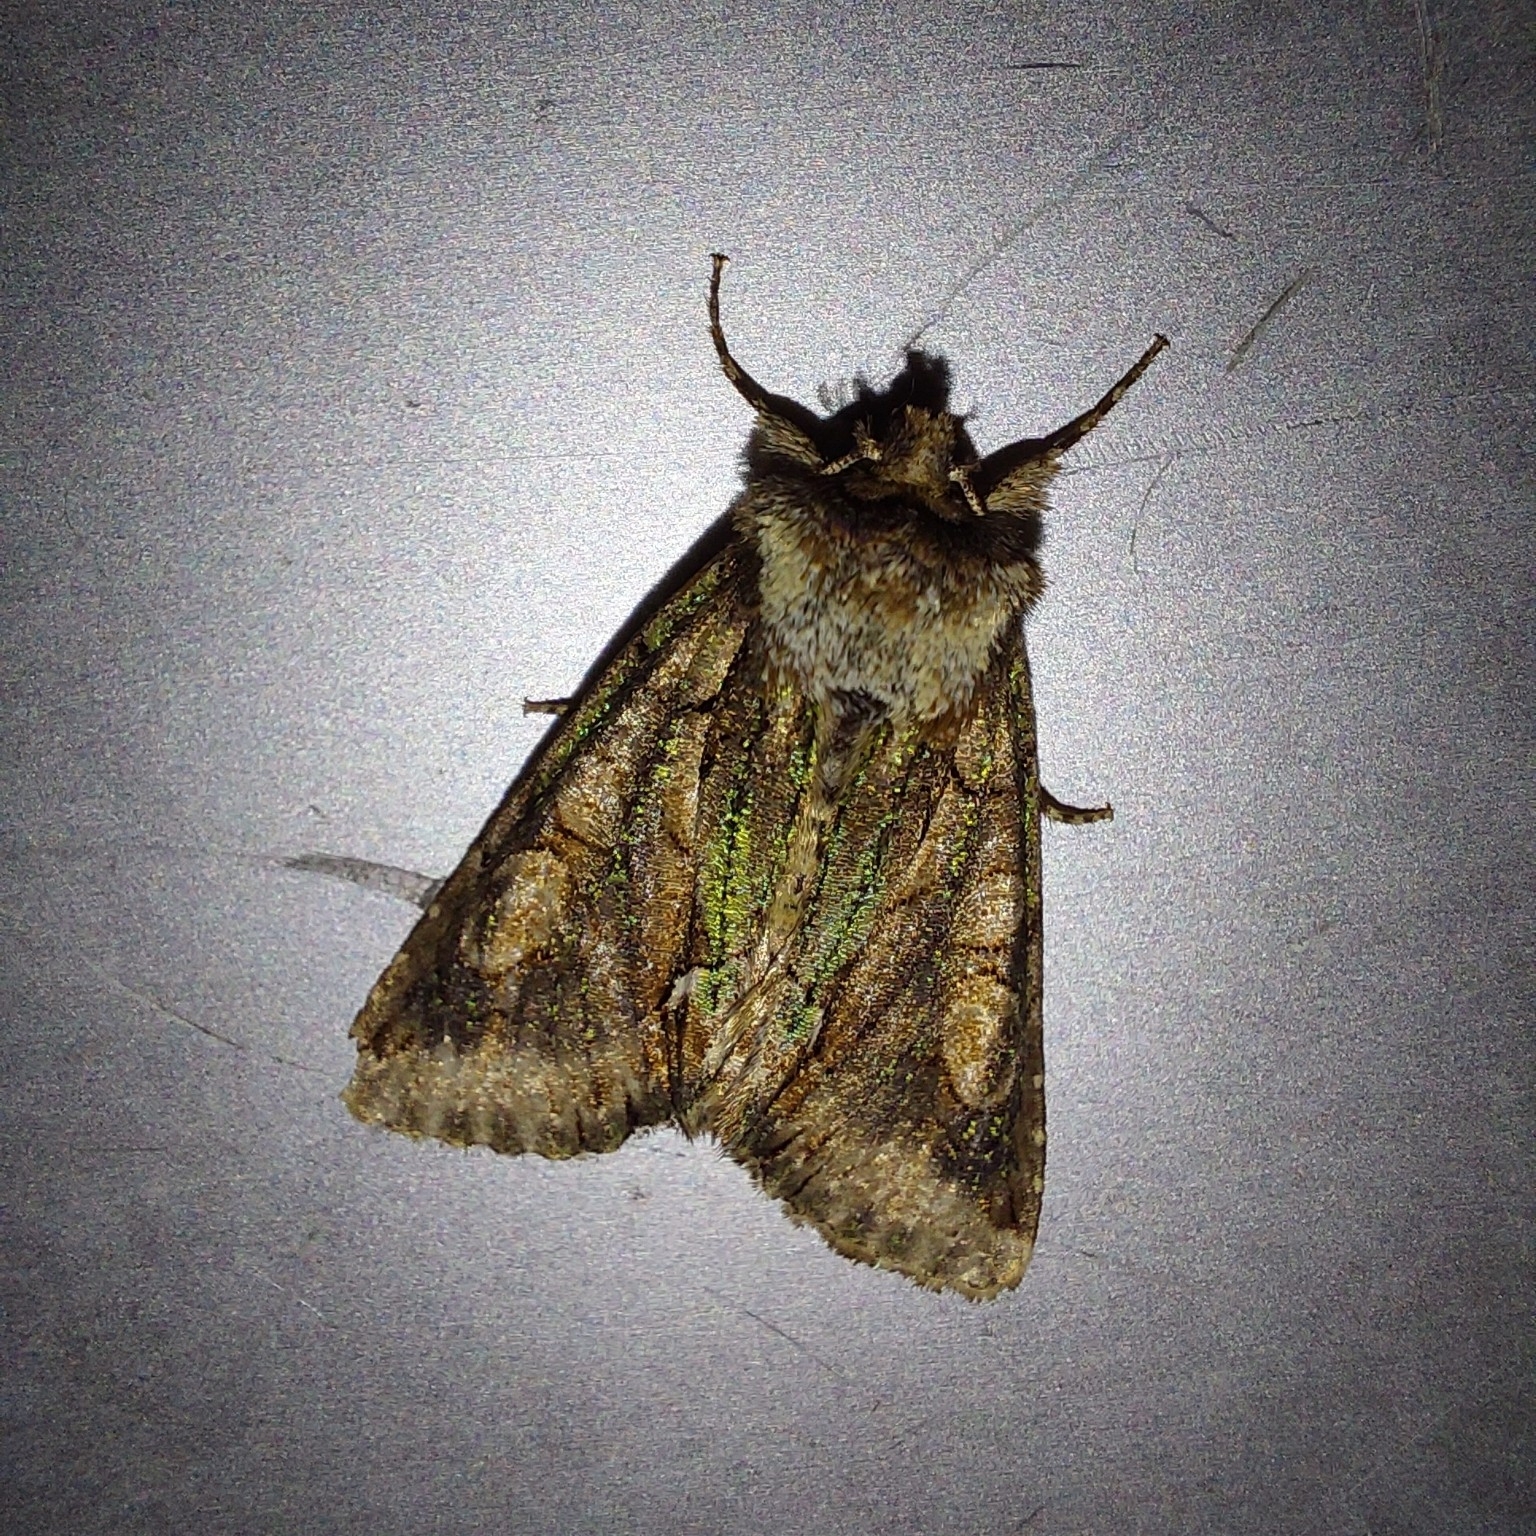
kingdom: Animalia
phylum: Arthropoda
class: Insecta
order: Lepidoptera
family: Noctuidae
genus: Allophyes
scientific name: Allophyes oxyacanthae
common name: Green-brindled crescent
